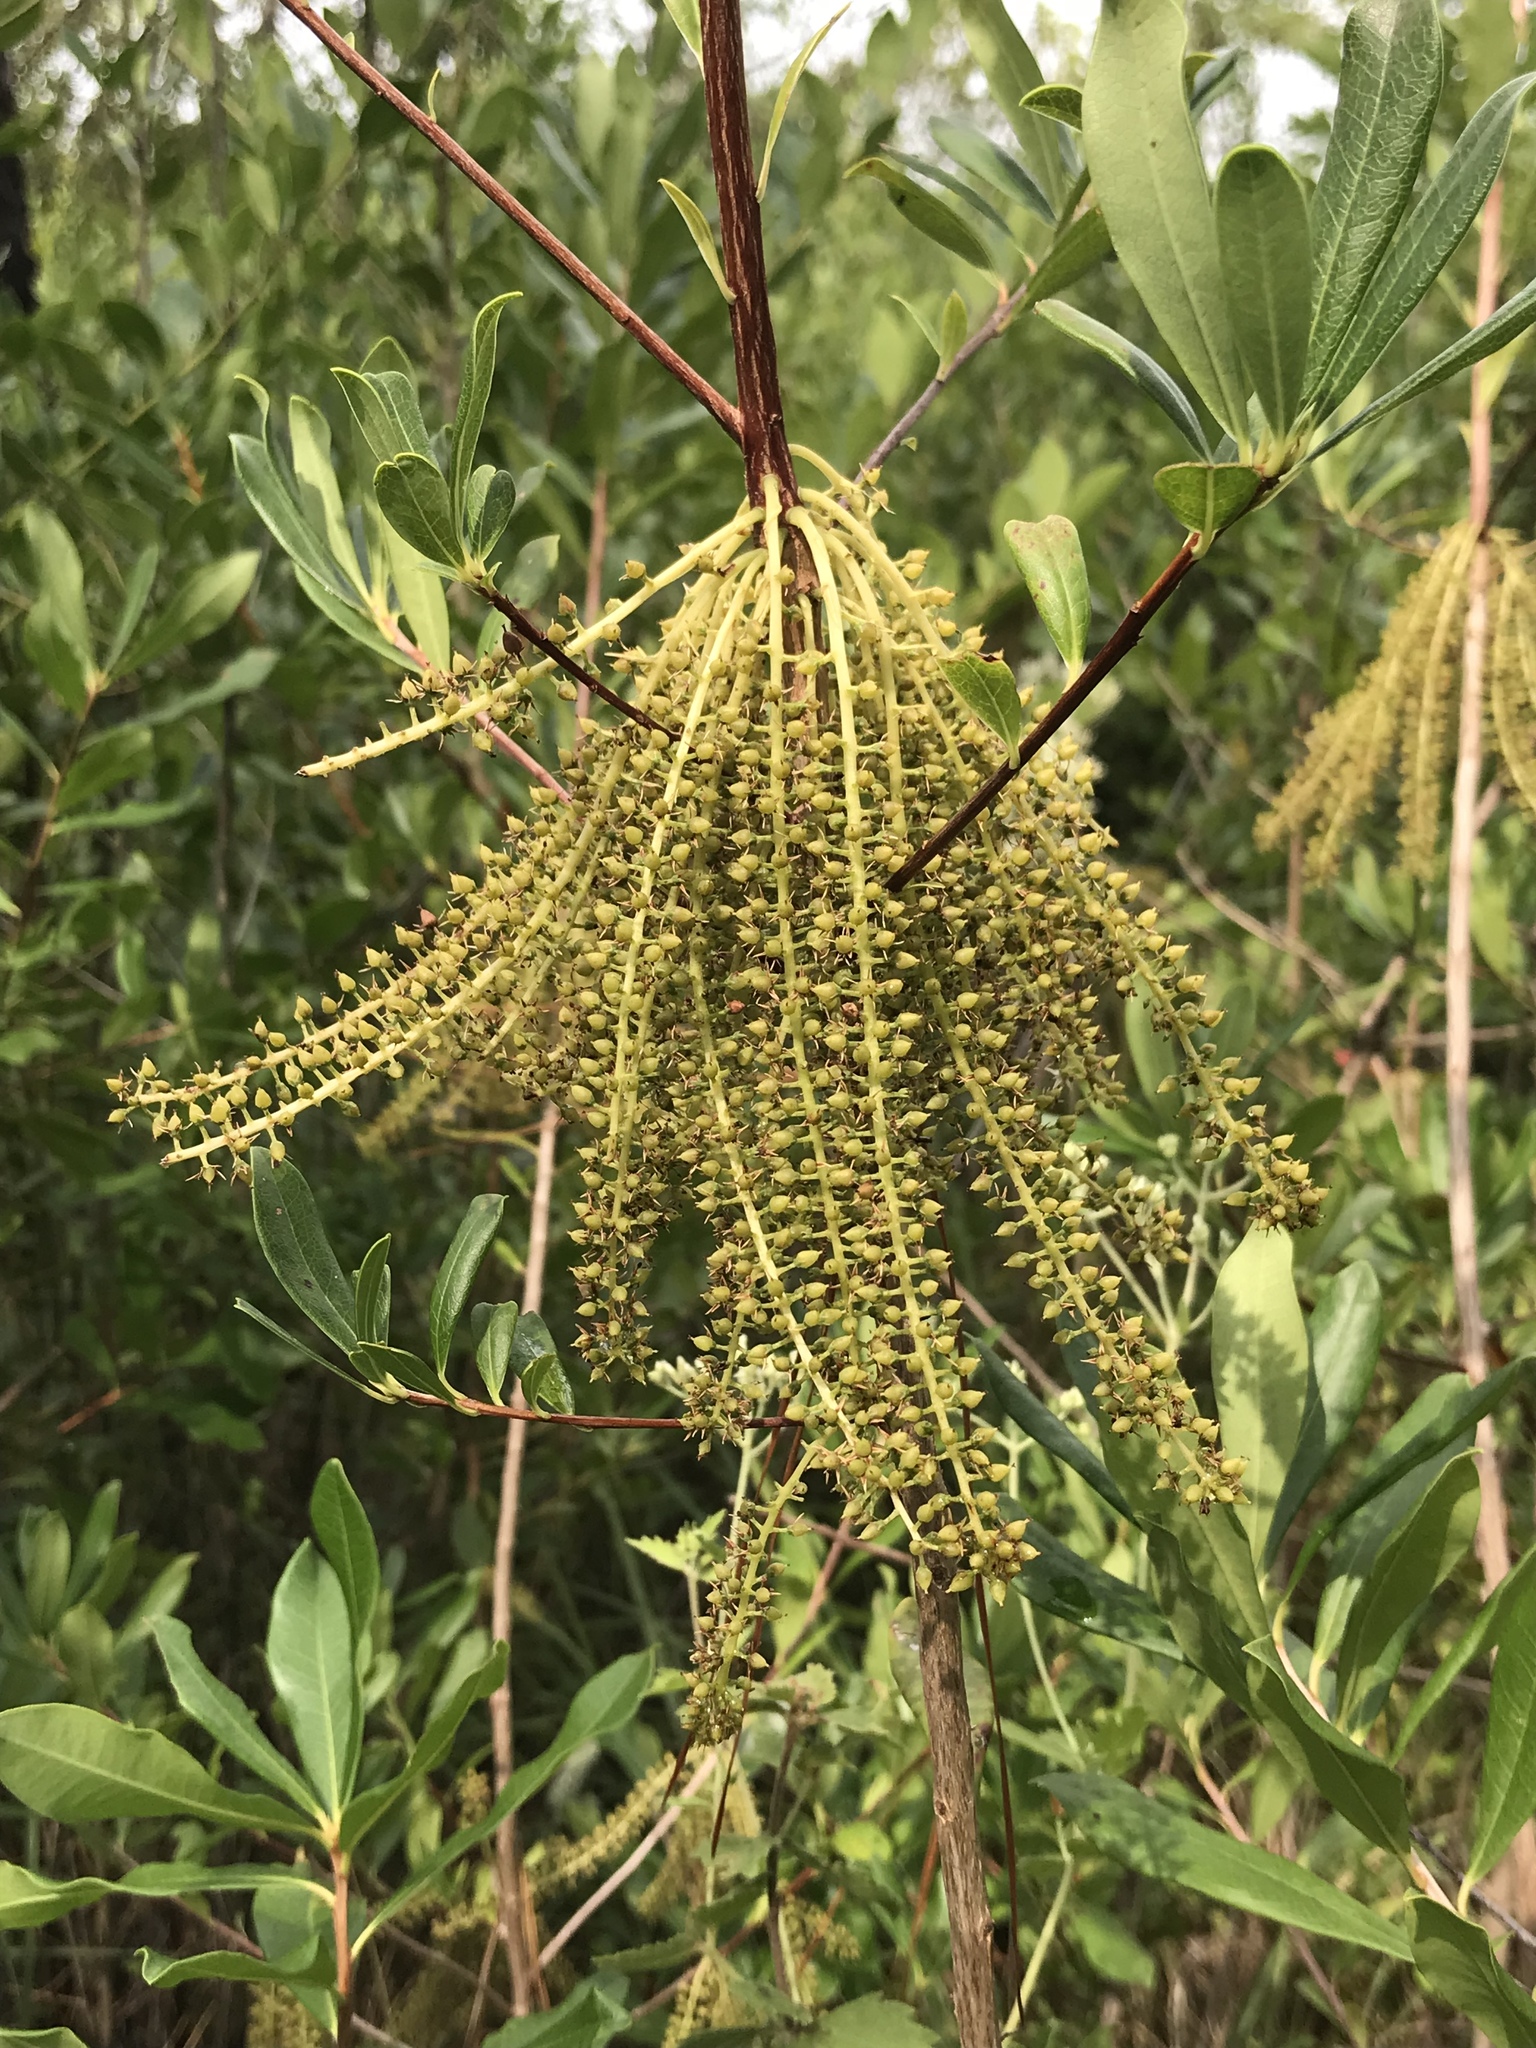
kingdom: Plantae
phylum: Tracheophyta
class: Magnoliopsida
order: Ericales
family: Cyrillaceae
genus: Cyrilla
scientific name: Cyrilla racemiflora
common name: Black titi
